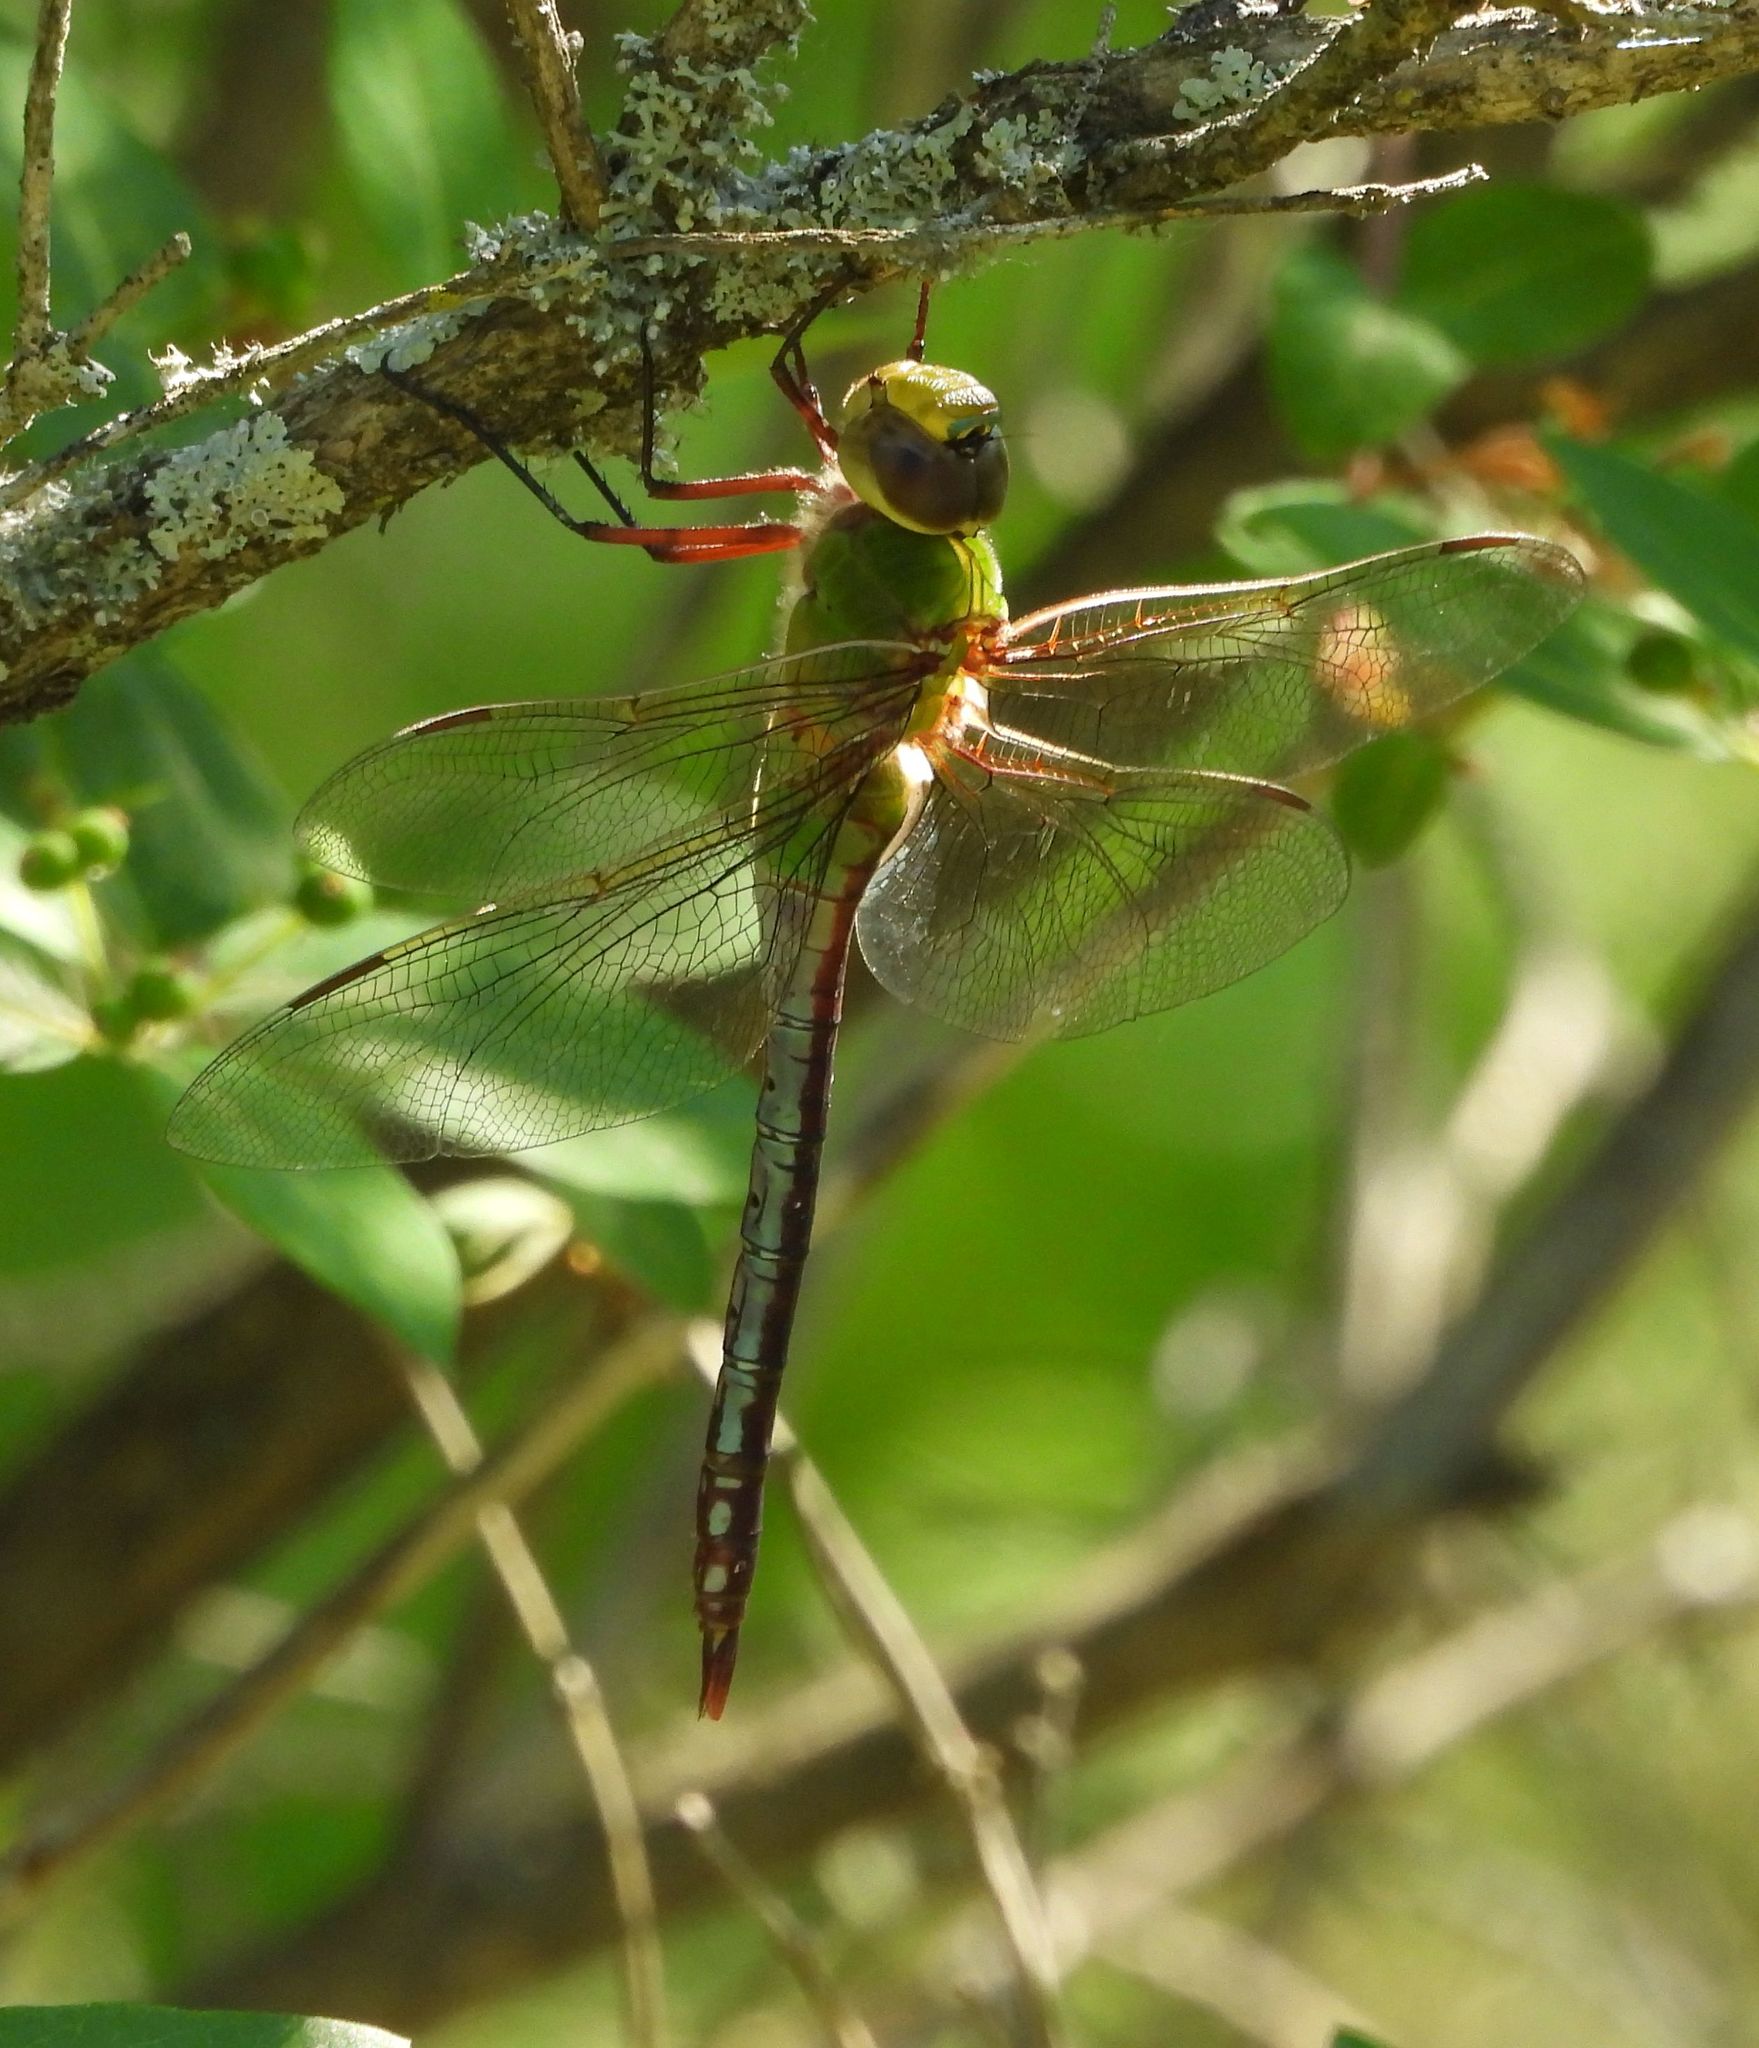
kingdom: Animalia
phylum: Arthropoda
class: Insecta
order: Odonata
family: Aeshnidae
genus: Anax
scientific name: Anax junius
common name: Common green darner
